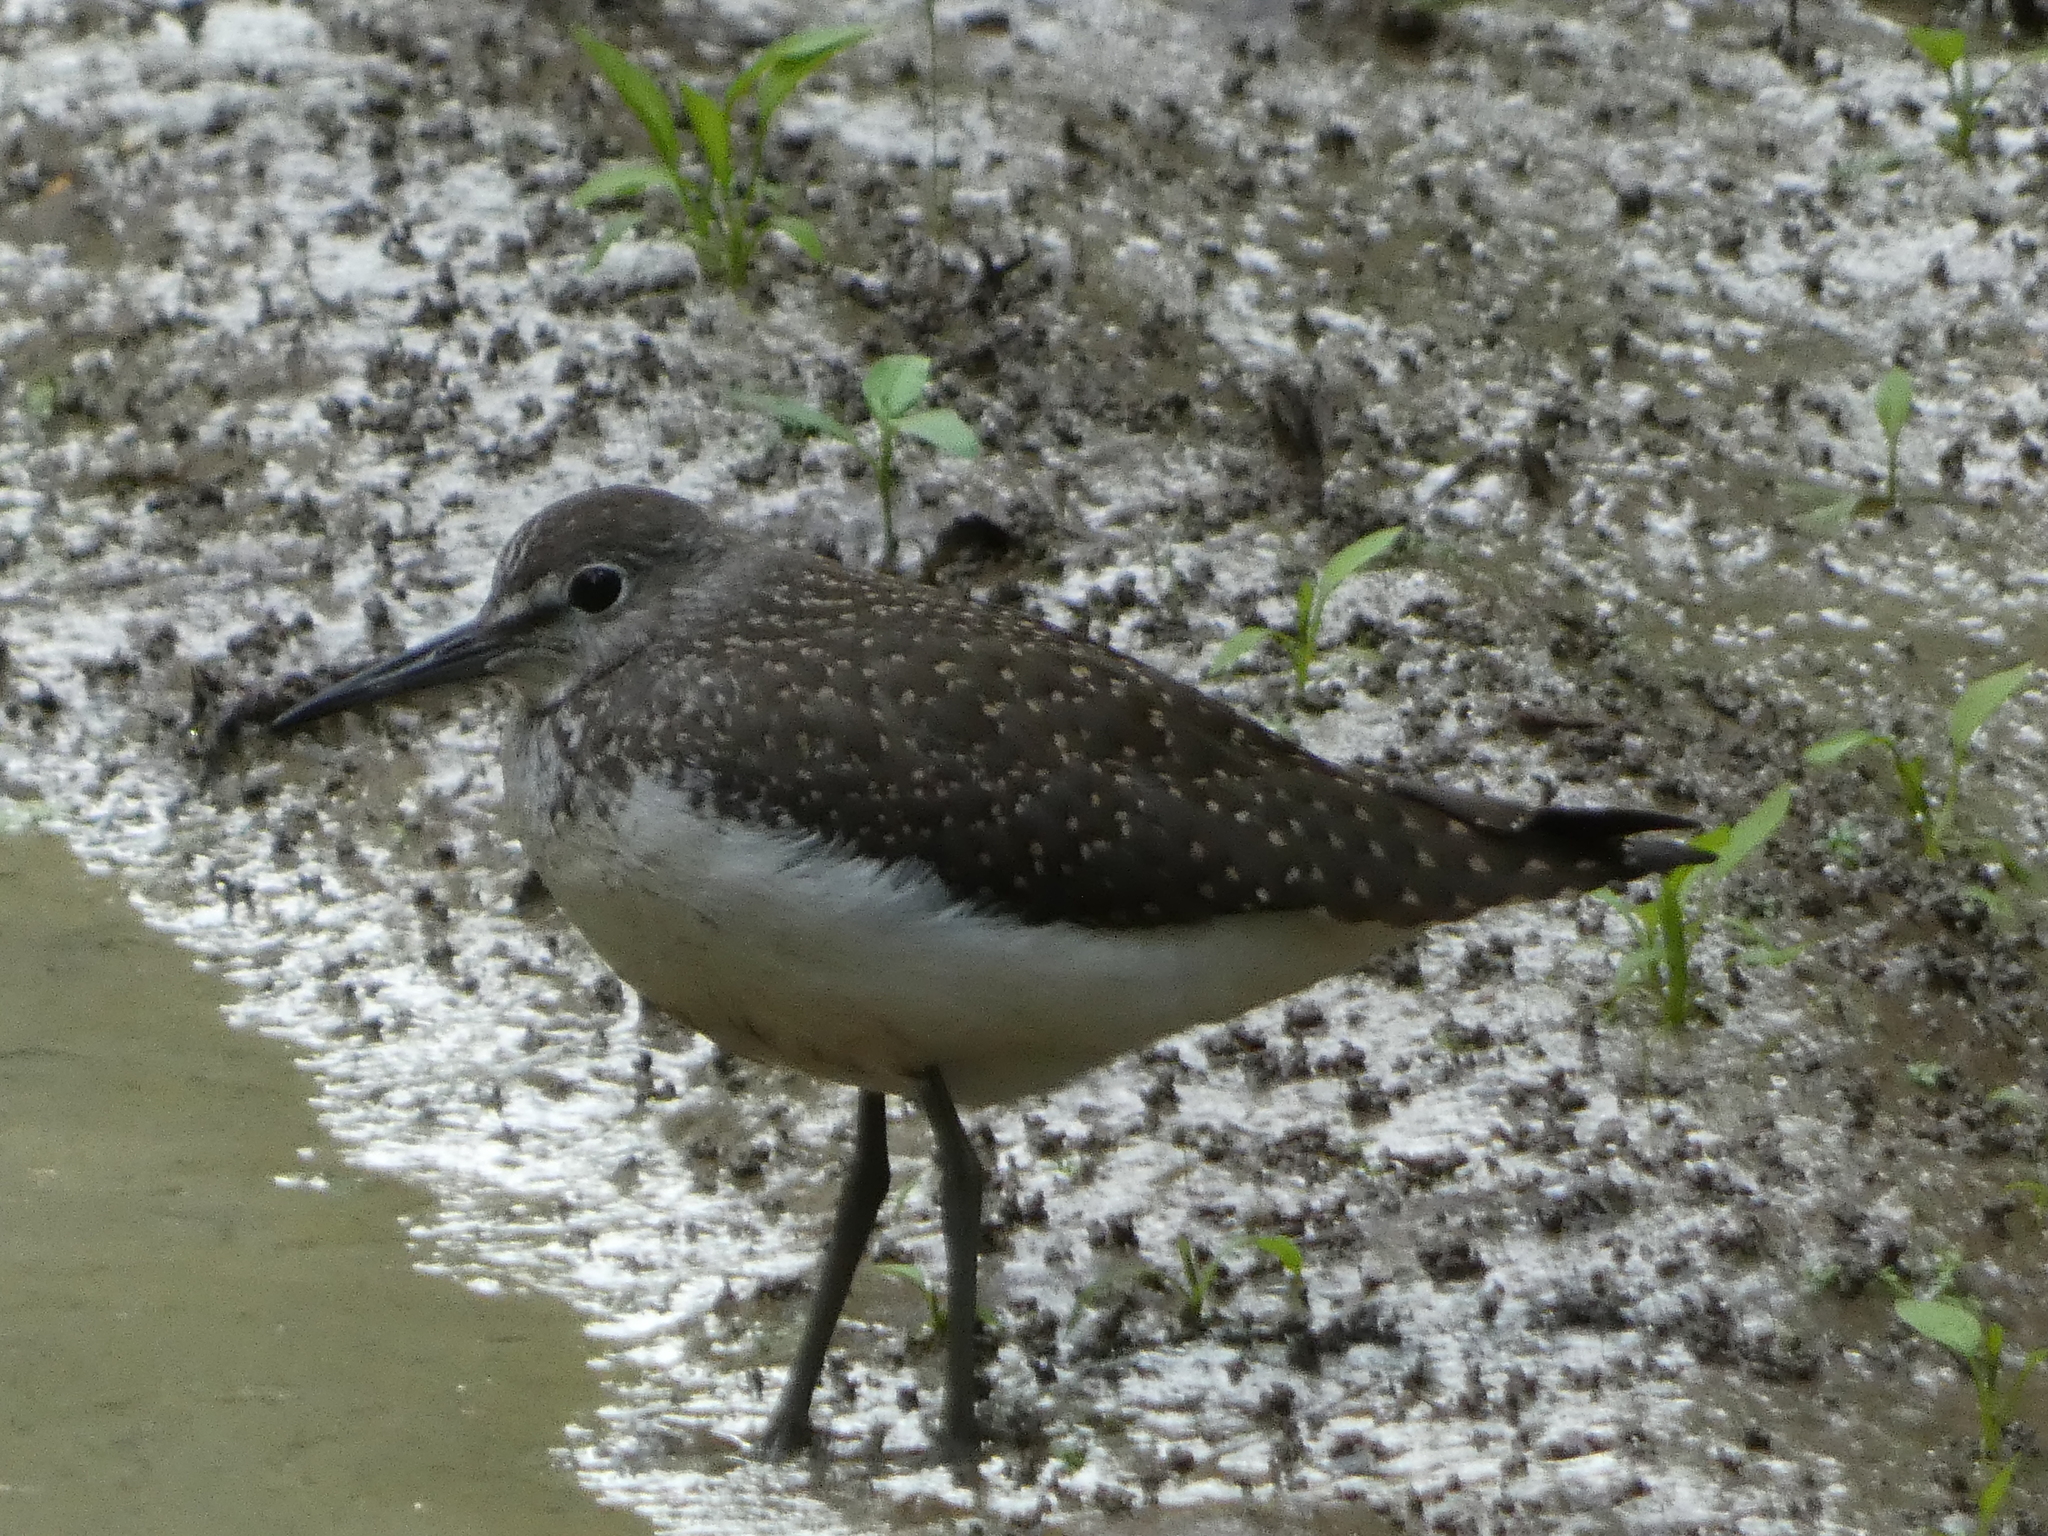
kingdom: Animalia
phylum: Chordata
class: Aves
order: Charadriiformes
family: Scolopacidae
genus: Tringa
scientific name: Tringa ochropus
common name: Green sandpiper
